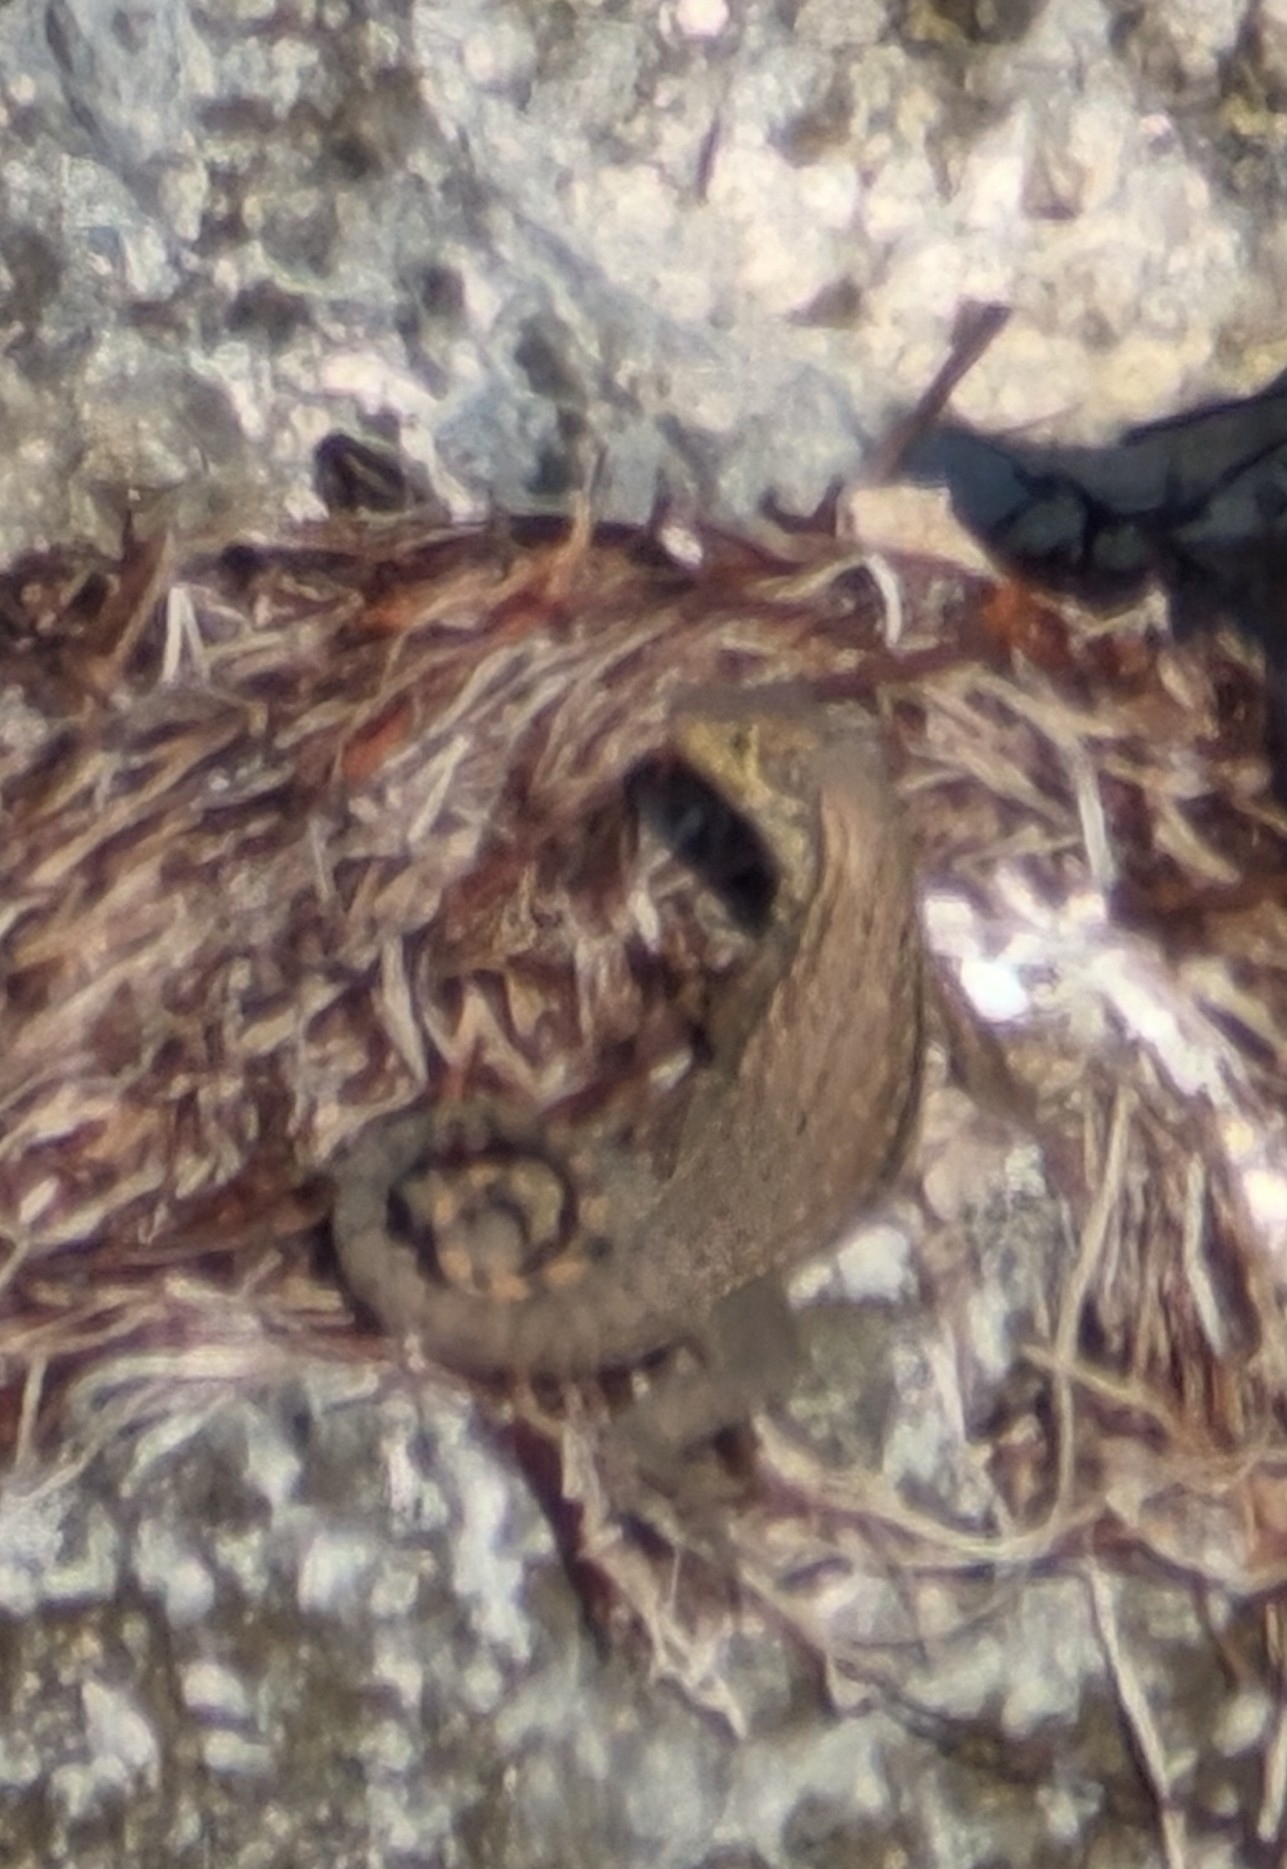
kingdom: Animalia
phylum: Chordata
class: Squamata
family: Leiocephalidae
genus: Leiocephalus
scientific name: Leiocephalus carinatus
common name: Northern curly-tailed lizard
